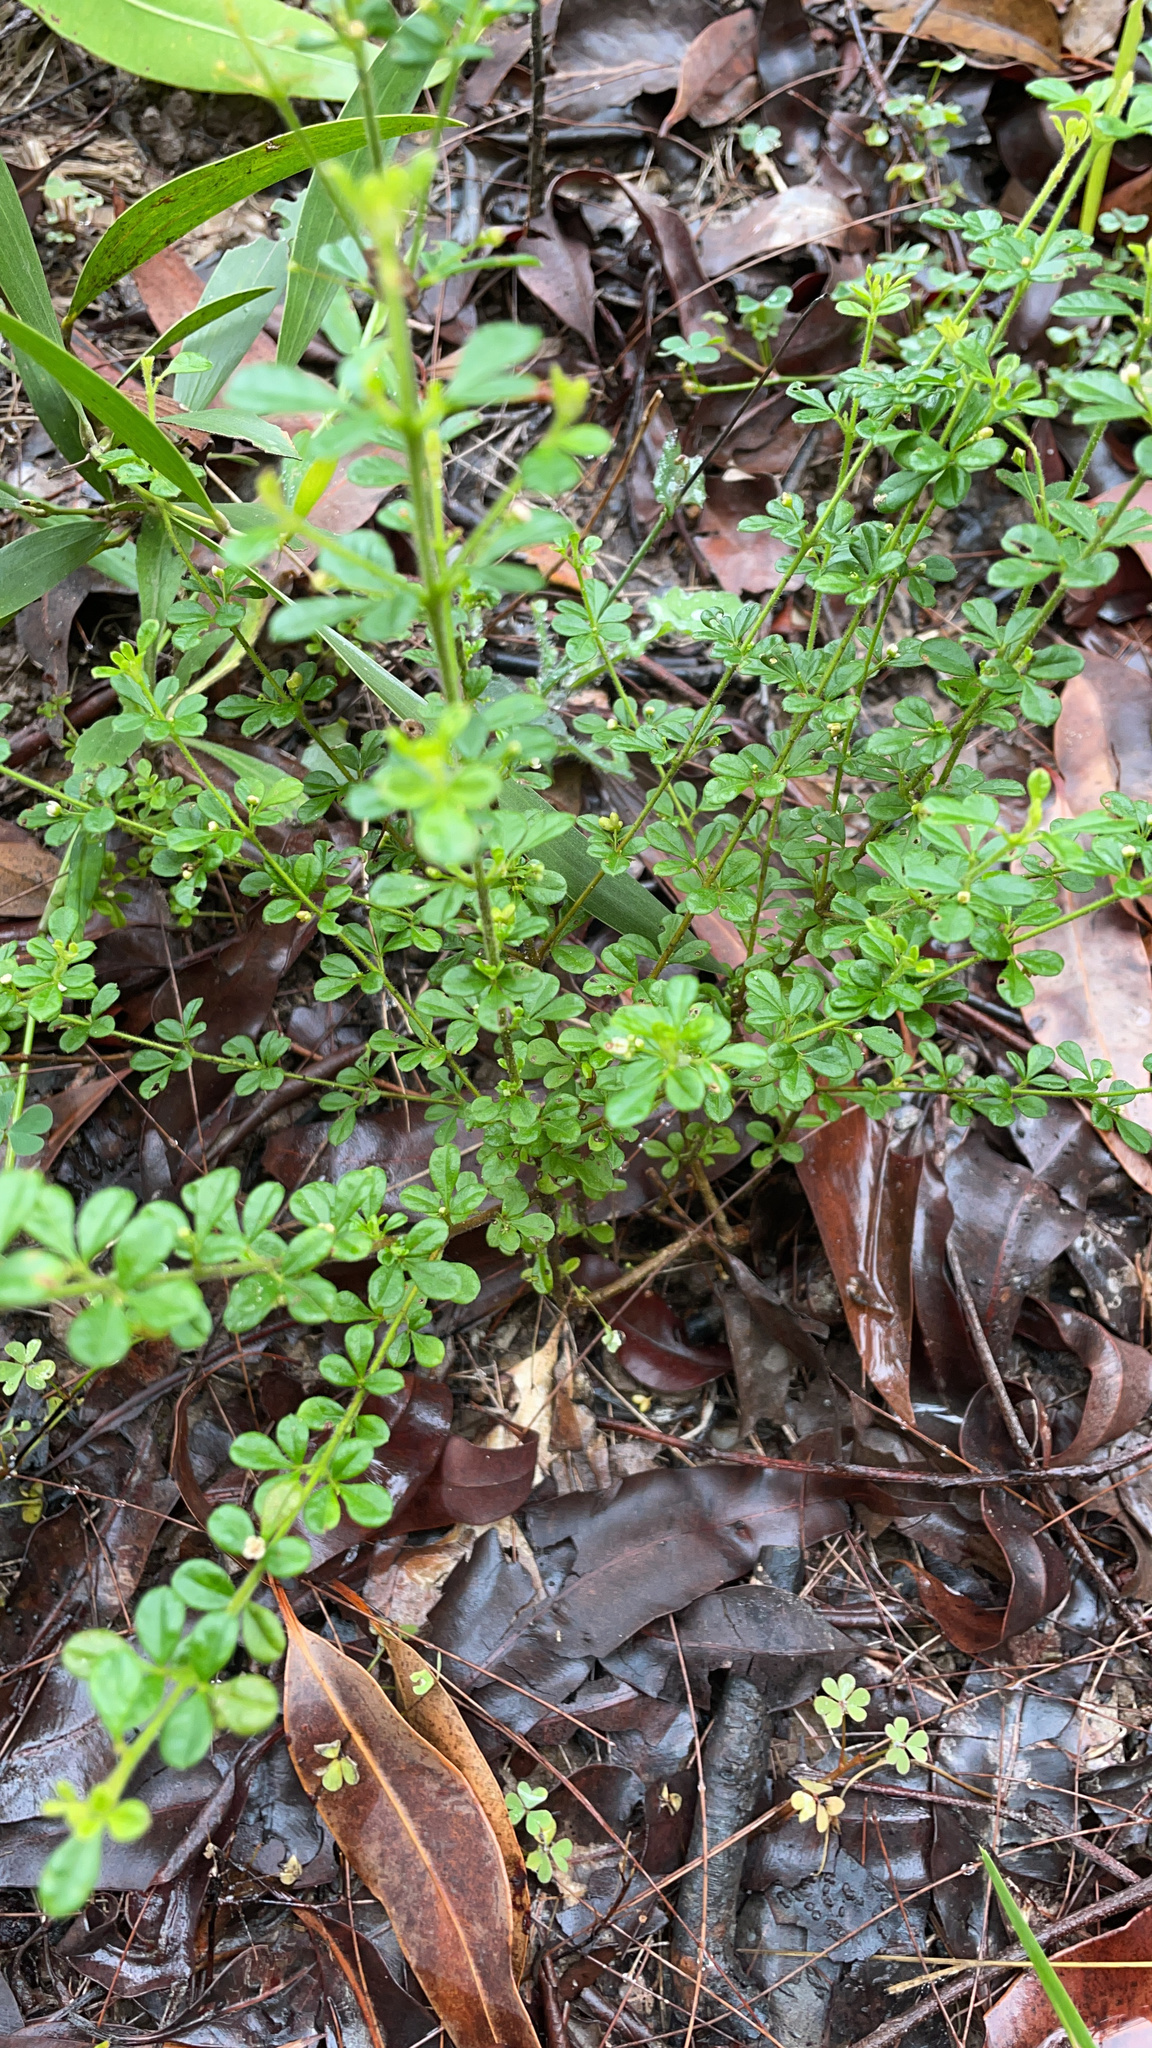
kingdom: Plantae
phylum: Tracheophyta
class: Magnoliopsida
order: Sapindales
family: Rutaceae
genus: Zieria
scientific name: Zieria minutiflora
